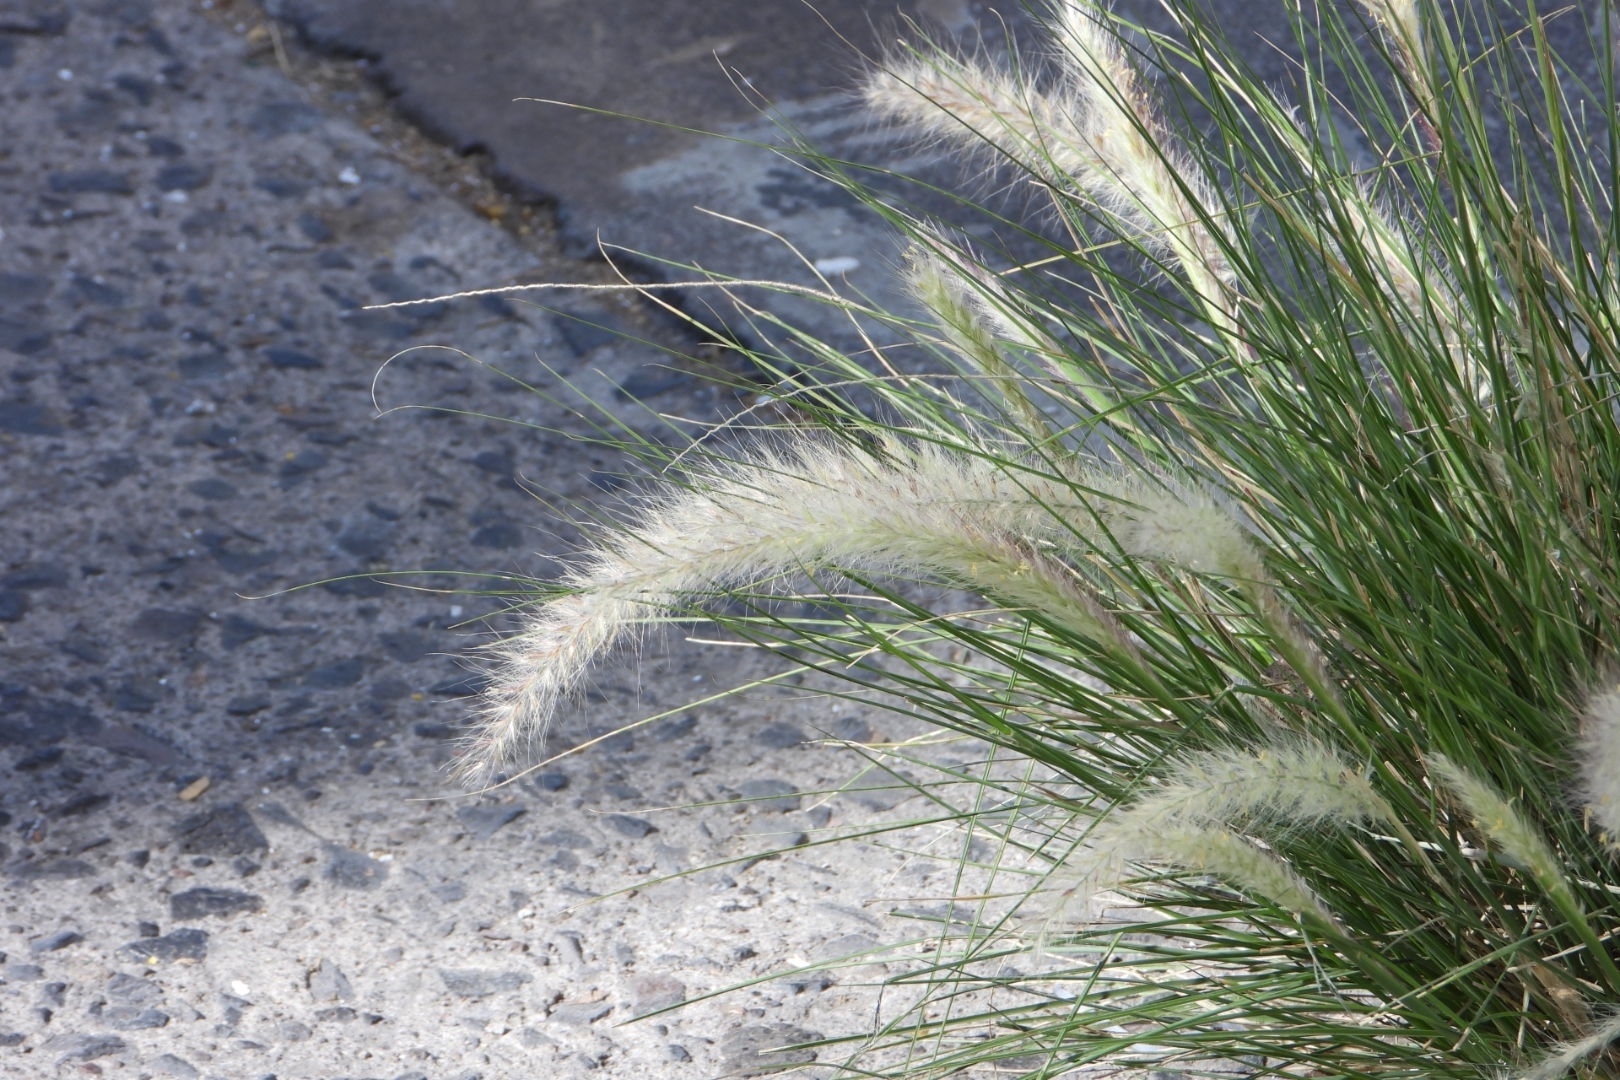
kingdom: Plantae
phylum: Tracheophyta
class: Liliopsida
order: Poales
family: Poaceae
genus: Cenchrus
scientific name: Cenchrus setaceus
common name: Crimson fountaingrass
